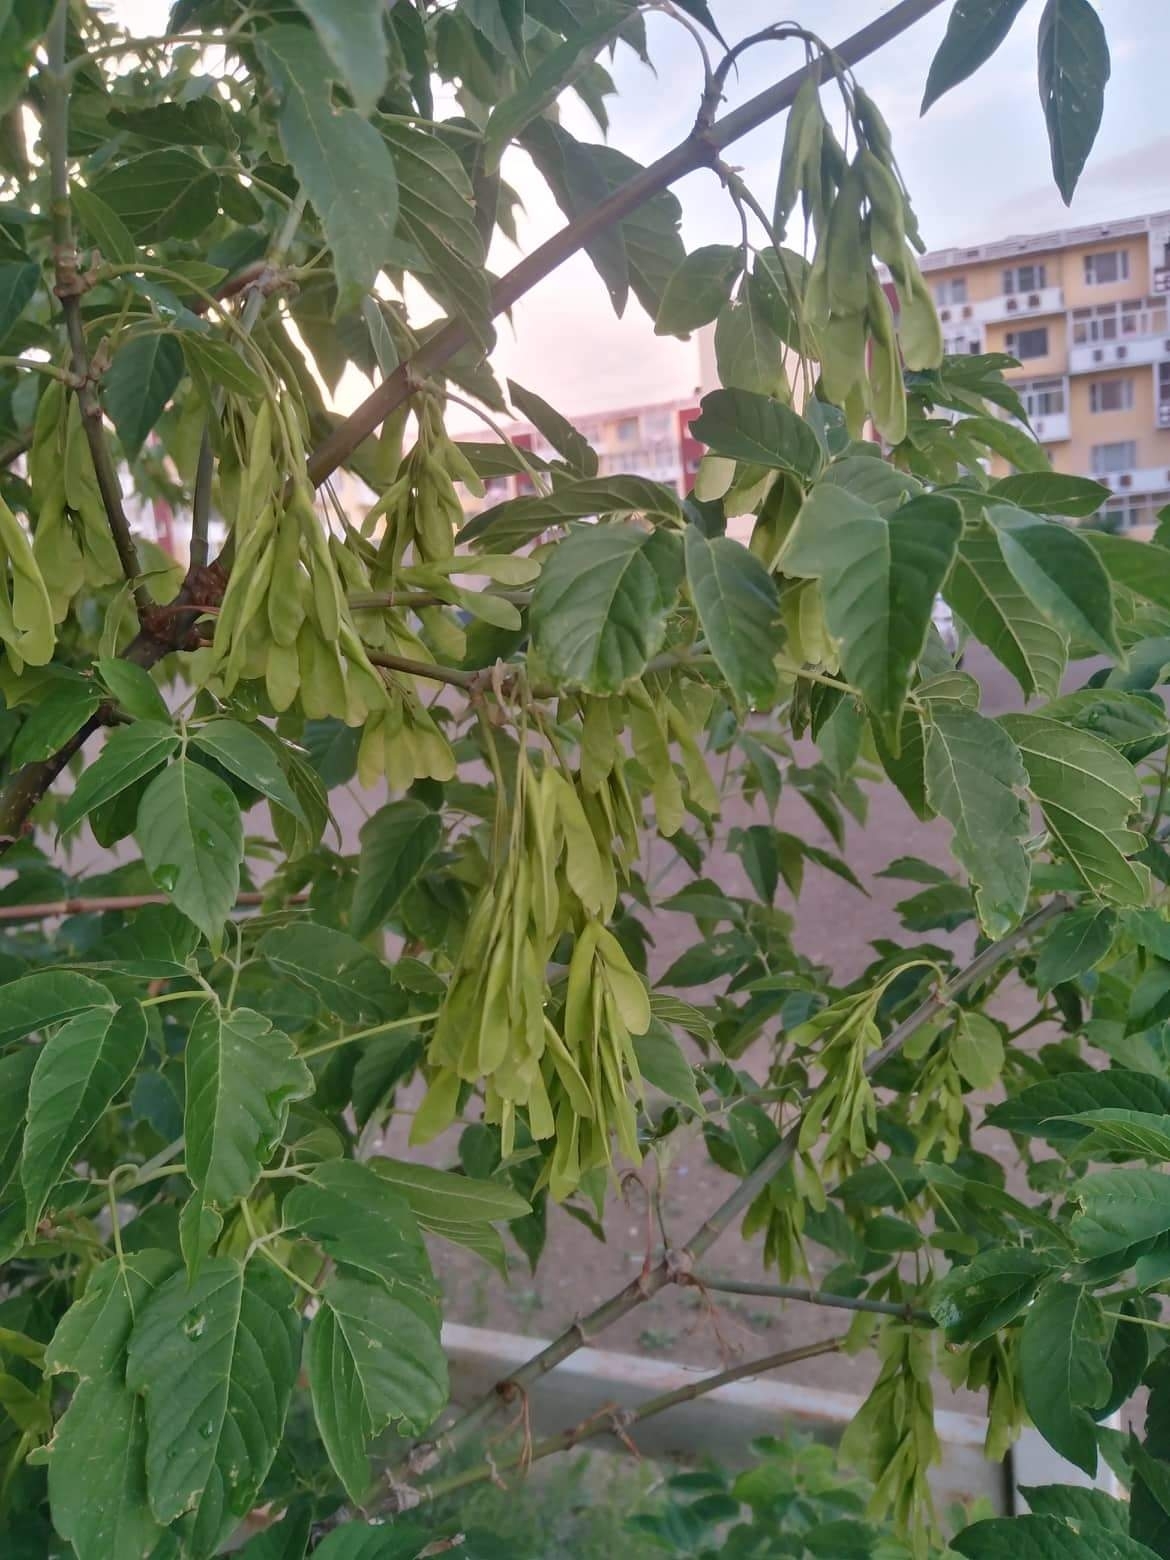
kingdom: Plantae
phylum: Tracheophyta
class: Magnoliopsida
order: Sapindales
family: Sapindaceae
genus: Acer
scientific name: Acer negundo
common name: Ashleaf maple
